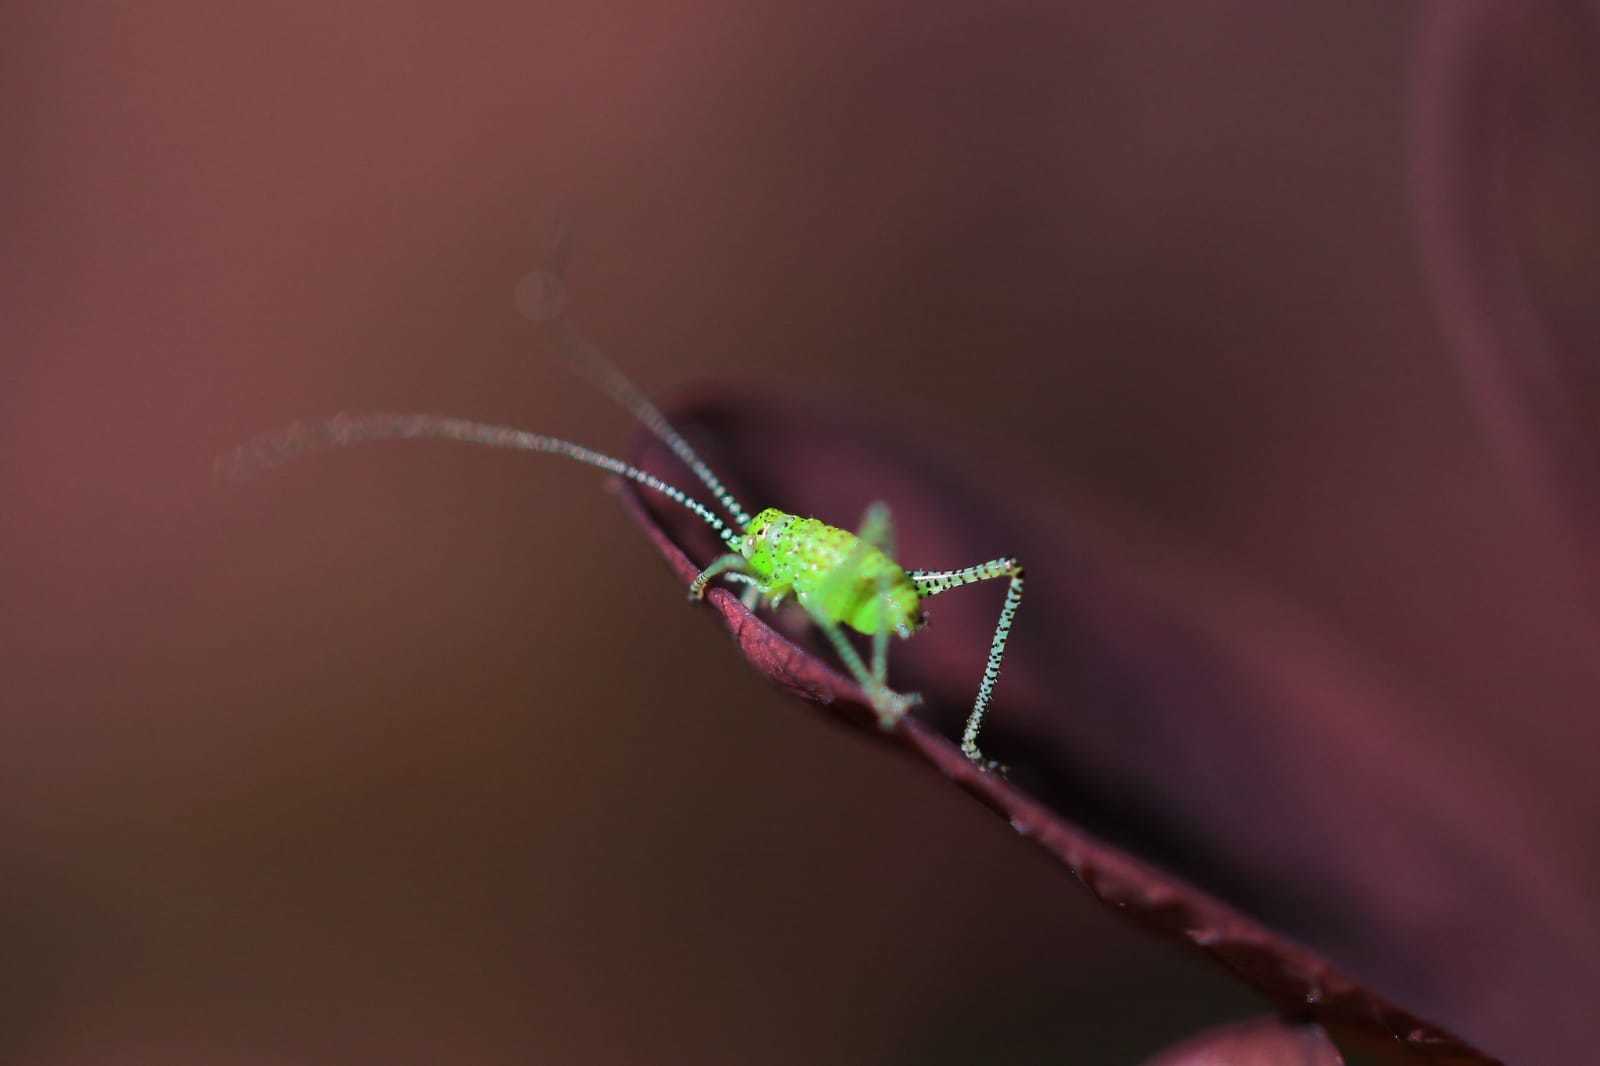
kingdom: Animalia
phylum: Arthropoda
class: Insecta
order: Orthoptera
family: Tettigoniidae
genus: Leptophyes
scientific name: Leptophyes punctatissima
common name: Speckled bush-cricket
